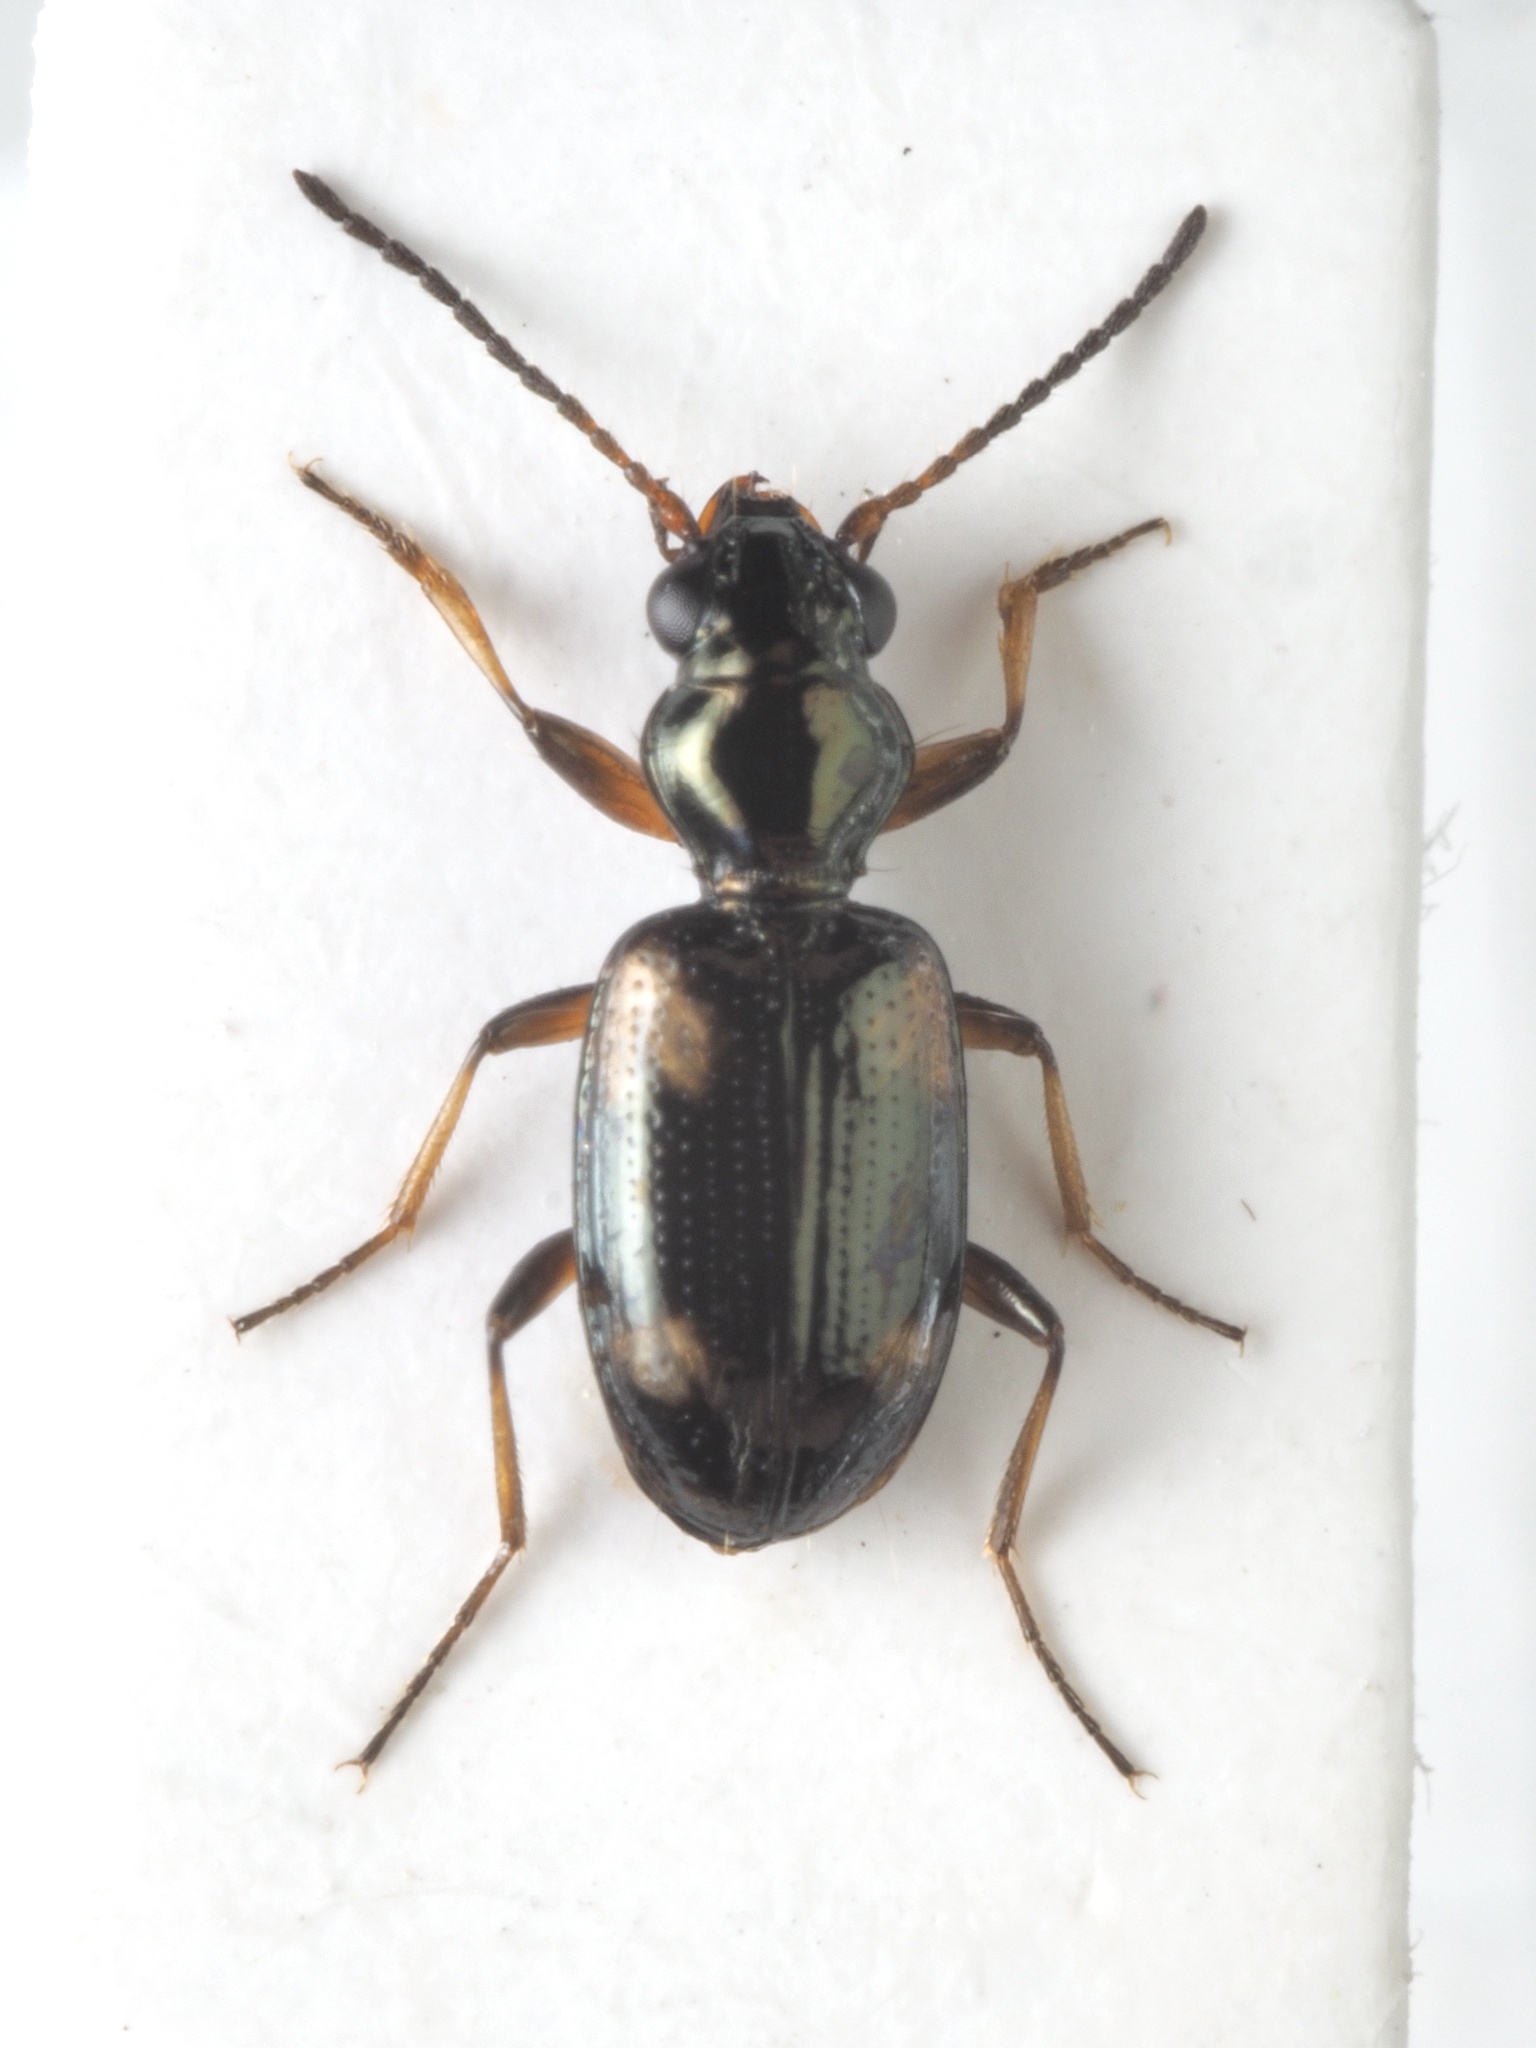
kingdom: Animalia
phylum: Arthropoda
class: Insecta
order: Coleoptera
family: Carabidae
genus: Bembidion
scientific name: Bembidion quadrimaculatum
